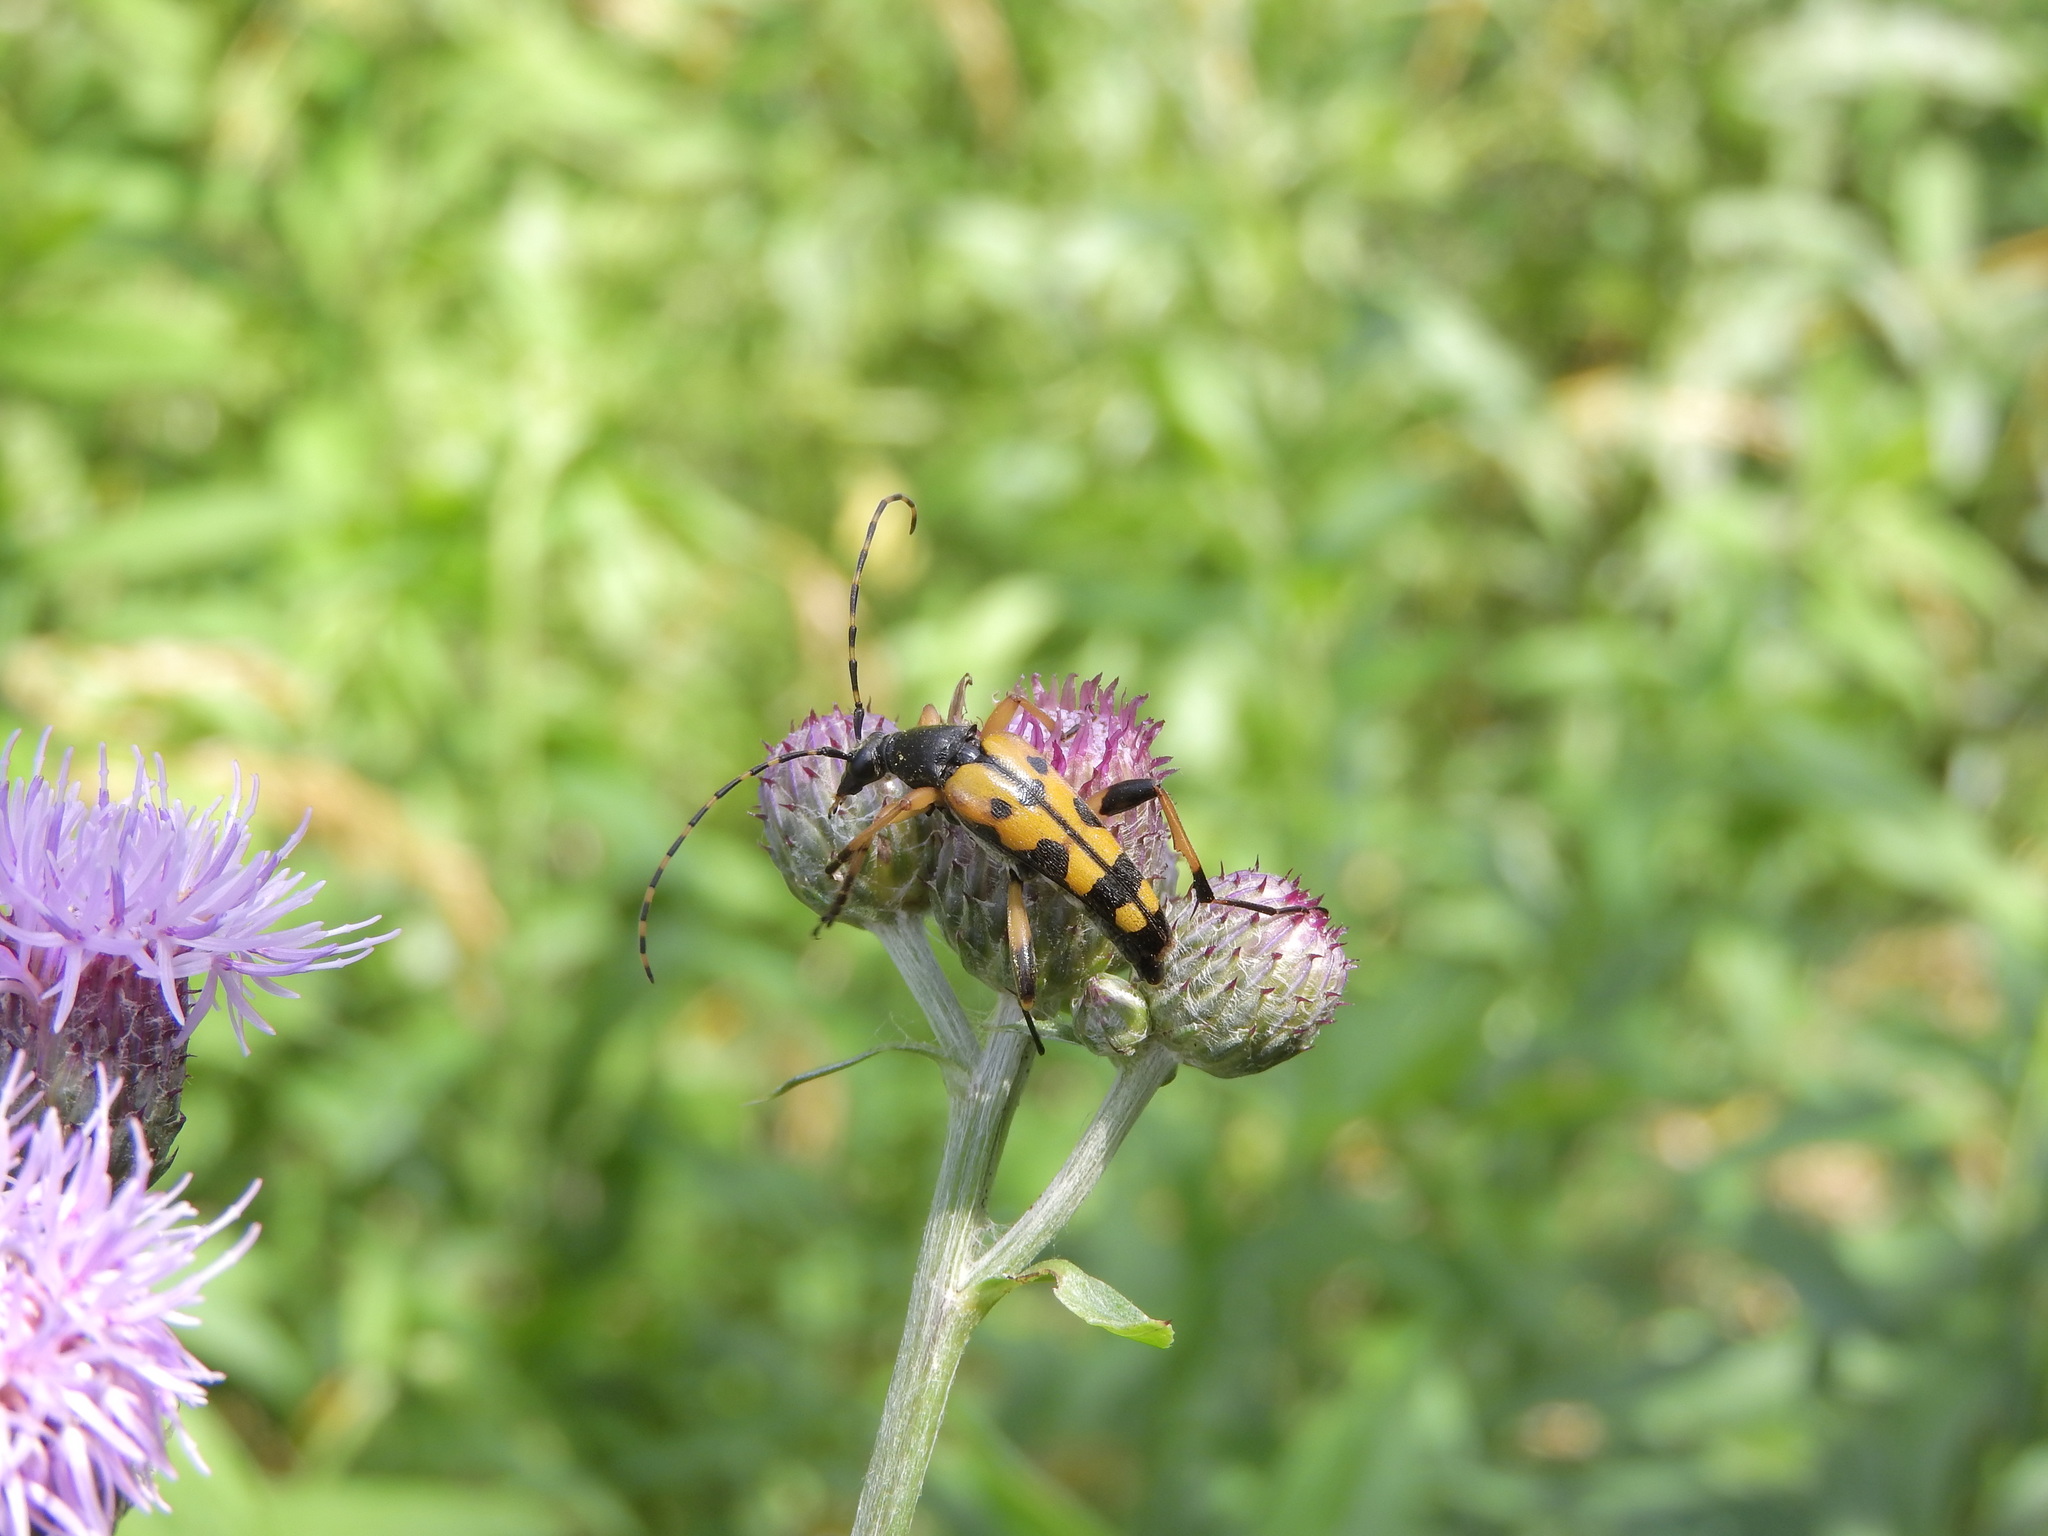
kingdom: Animalia
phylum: Arthropoda
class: Insecta
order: Coleoptera
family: Cerambycidae
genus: Rutpela
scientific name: Rutpela maculata
